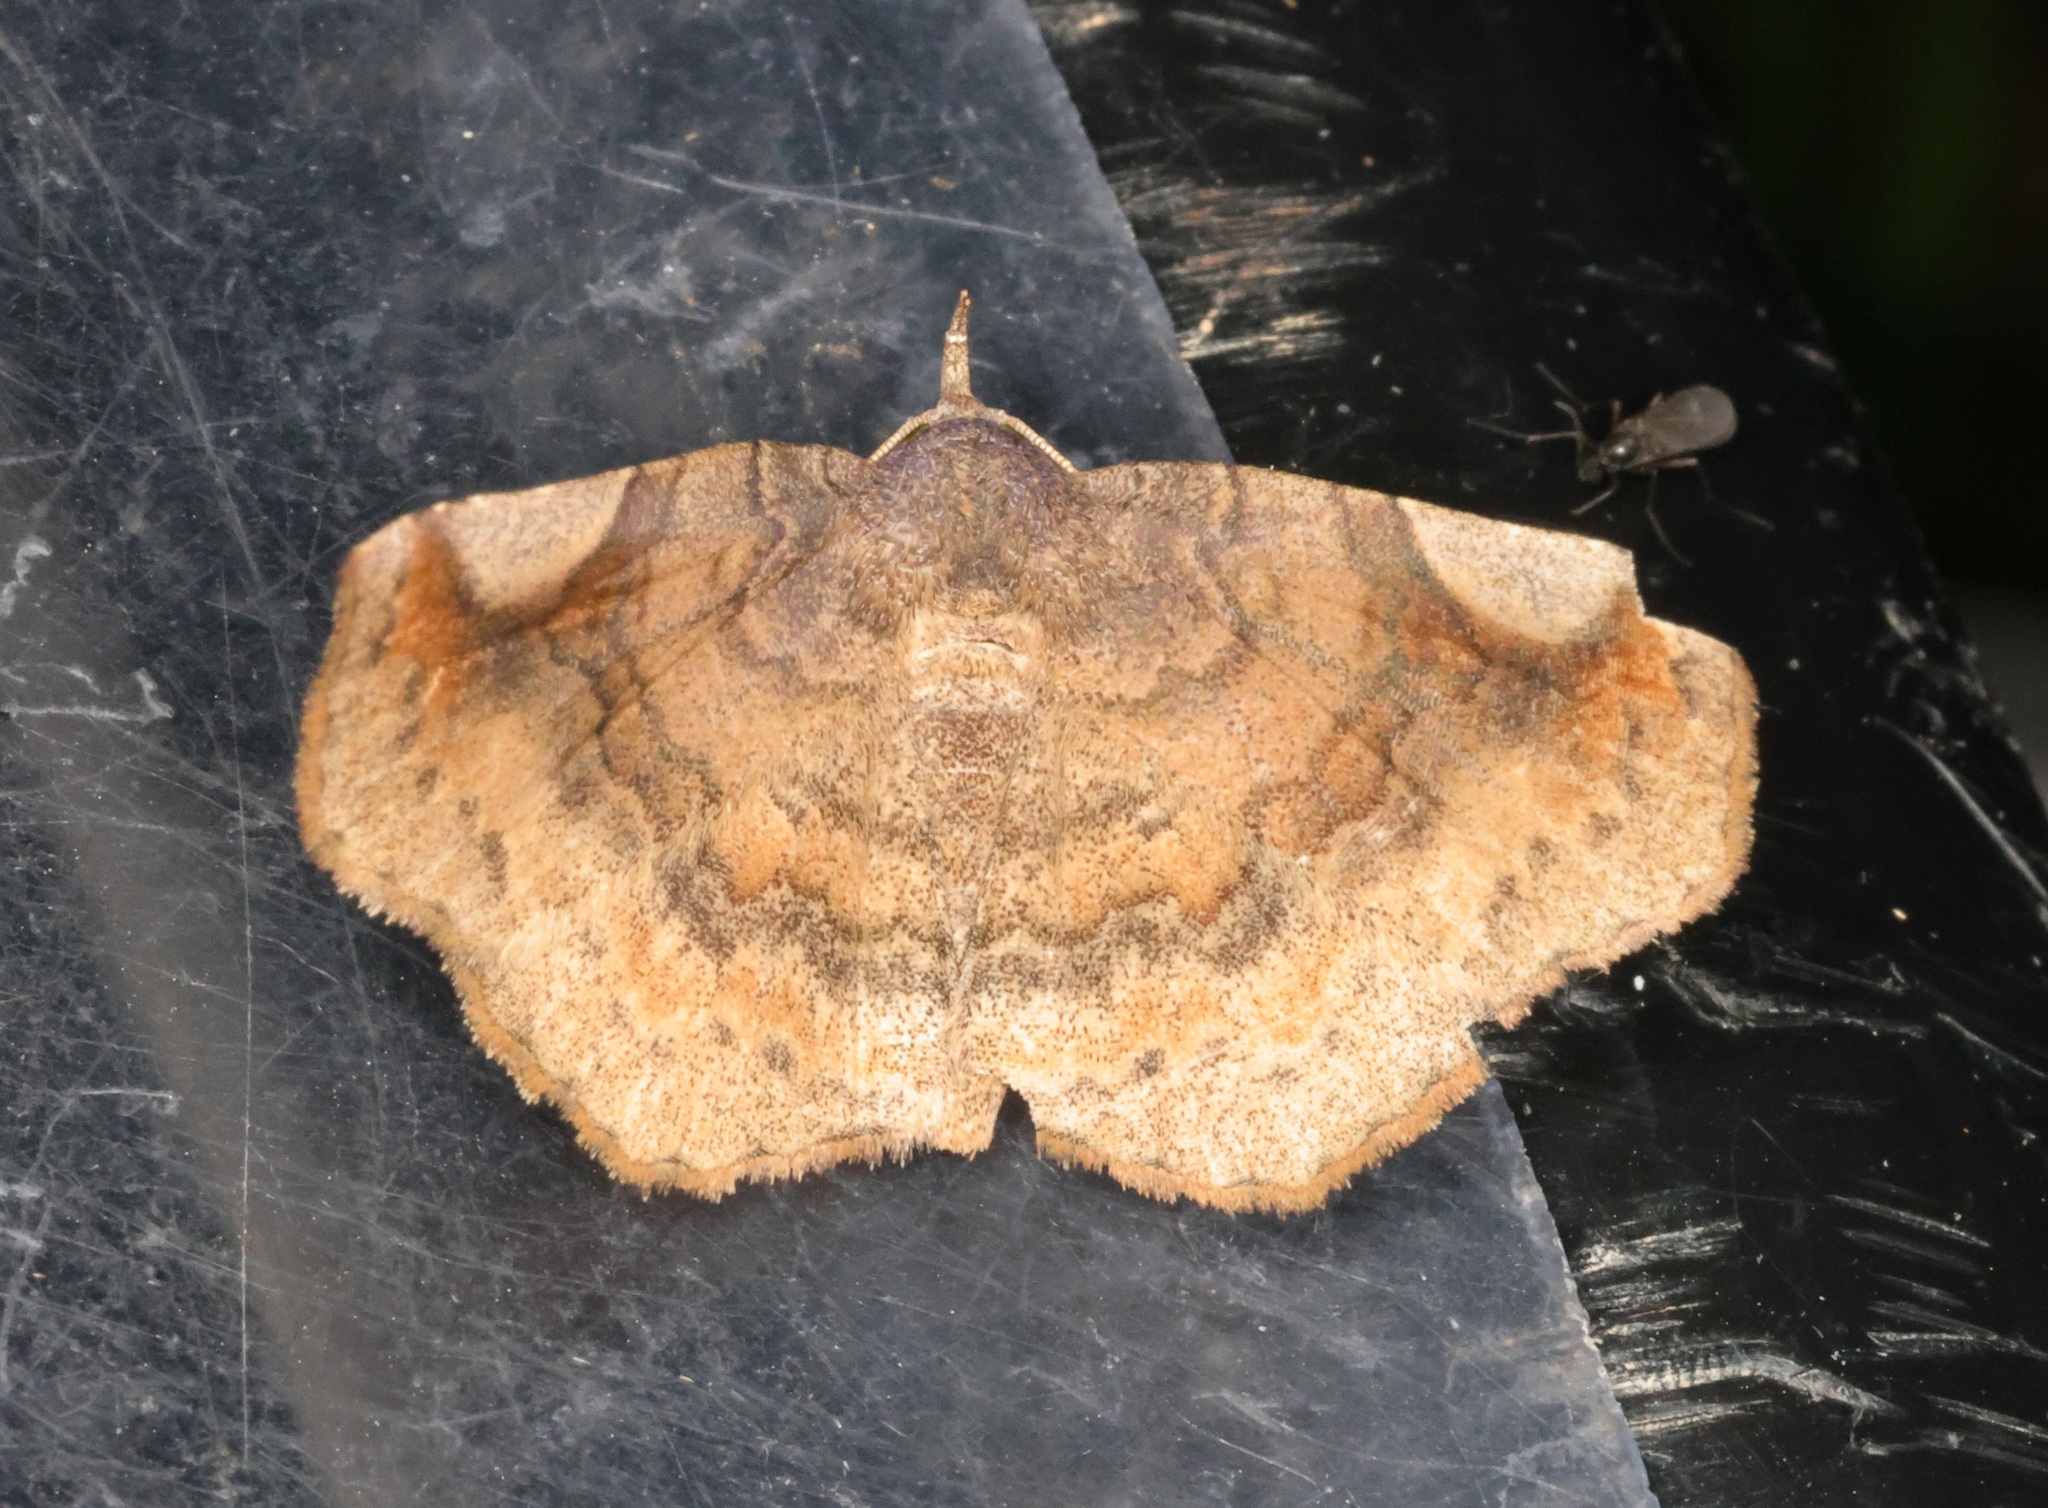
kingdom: Animalia
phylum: Arthropoda
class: Insecta
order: Lepidoptera
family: Erebidae
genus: Pangrapta
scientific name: Pangrapta perturbans
